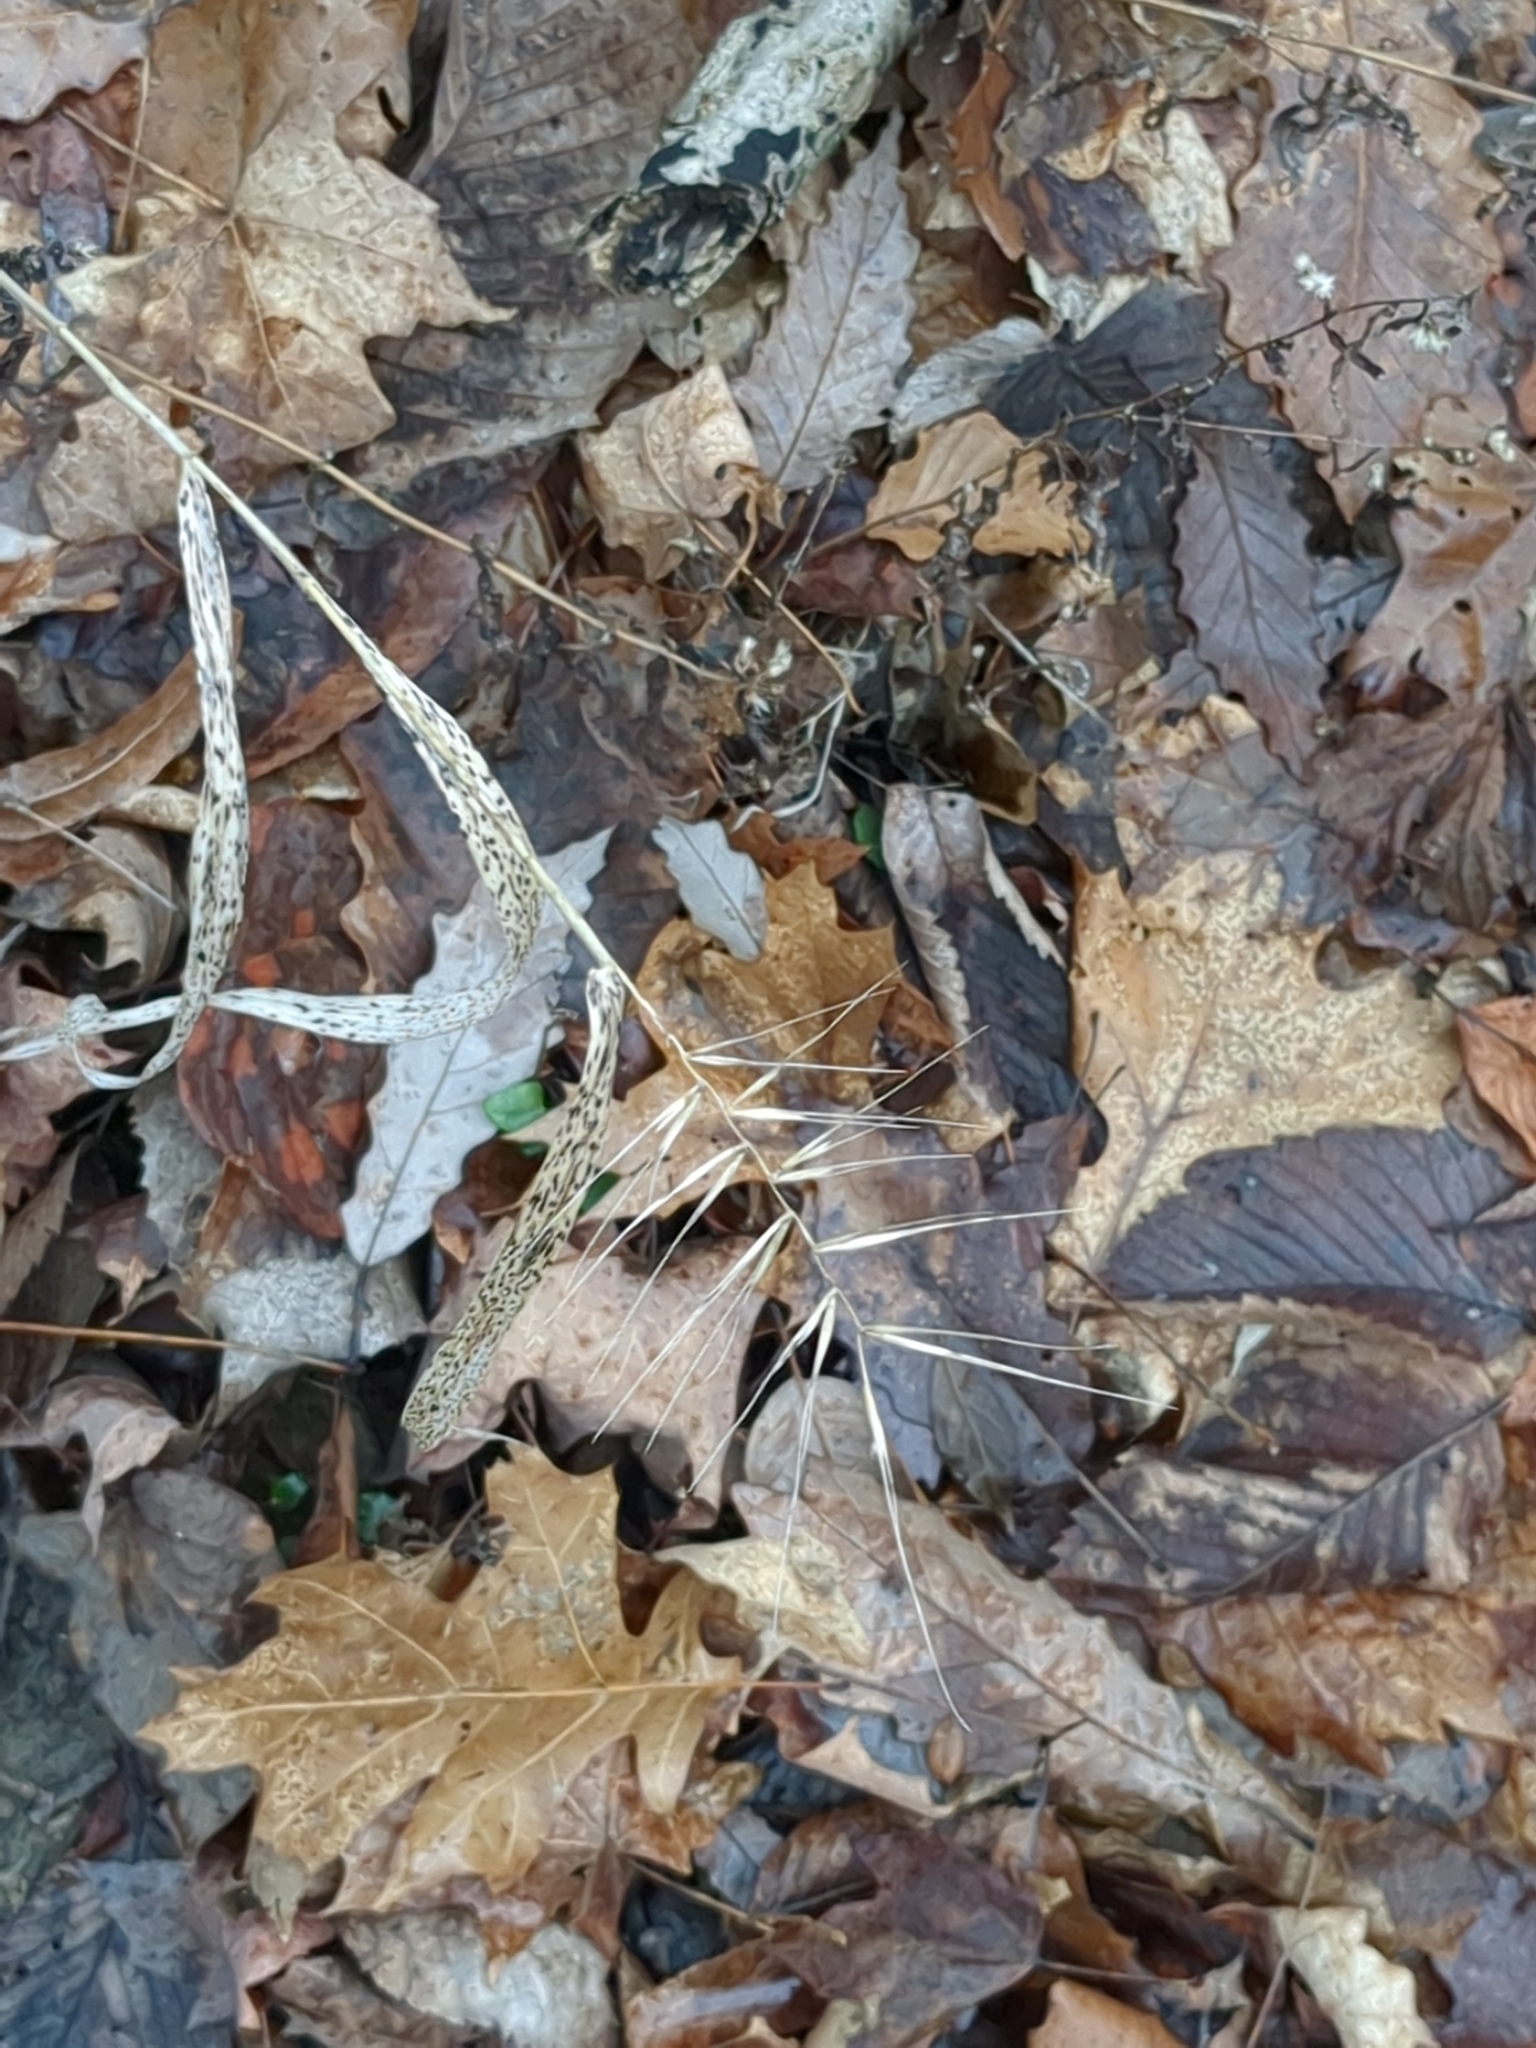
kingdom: Plantae
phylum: Tracheophyta
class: Liliopsida
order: Poales
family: Poaceae
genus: Elymus
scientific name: Elymus hystrix
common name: Bottlebrush grass
